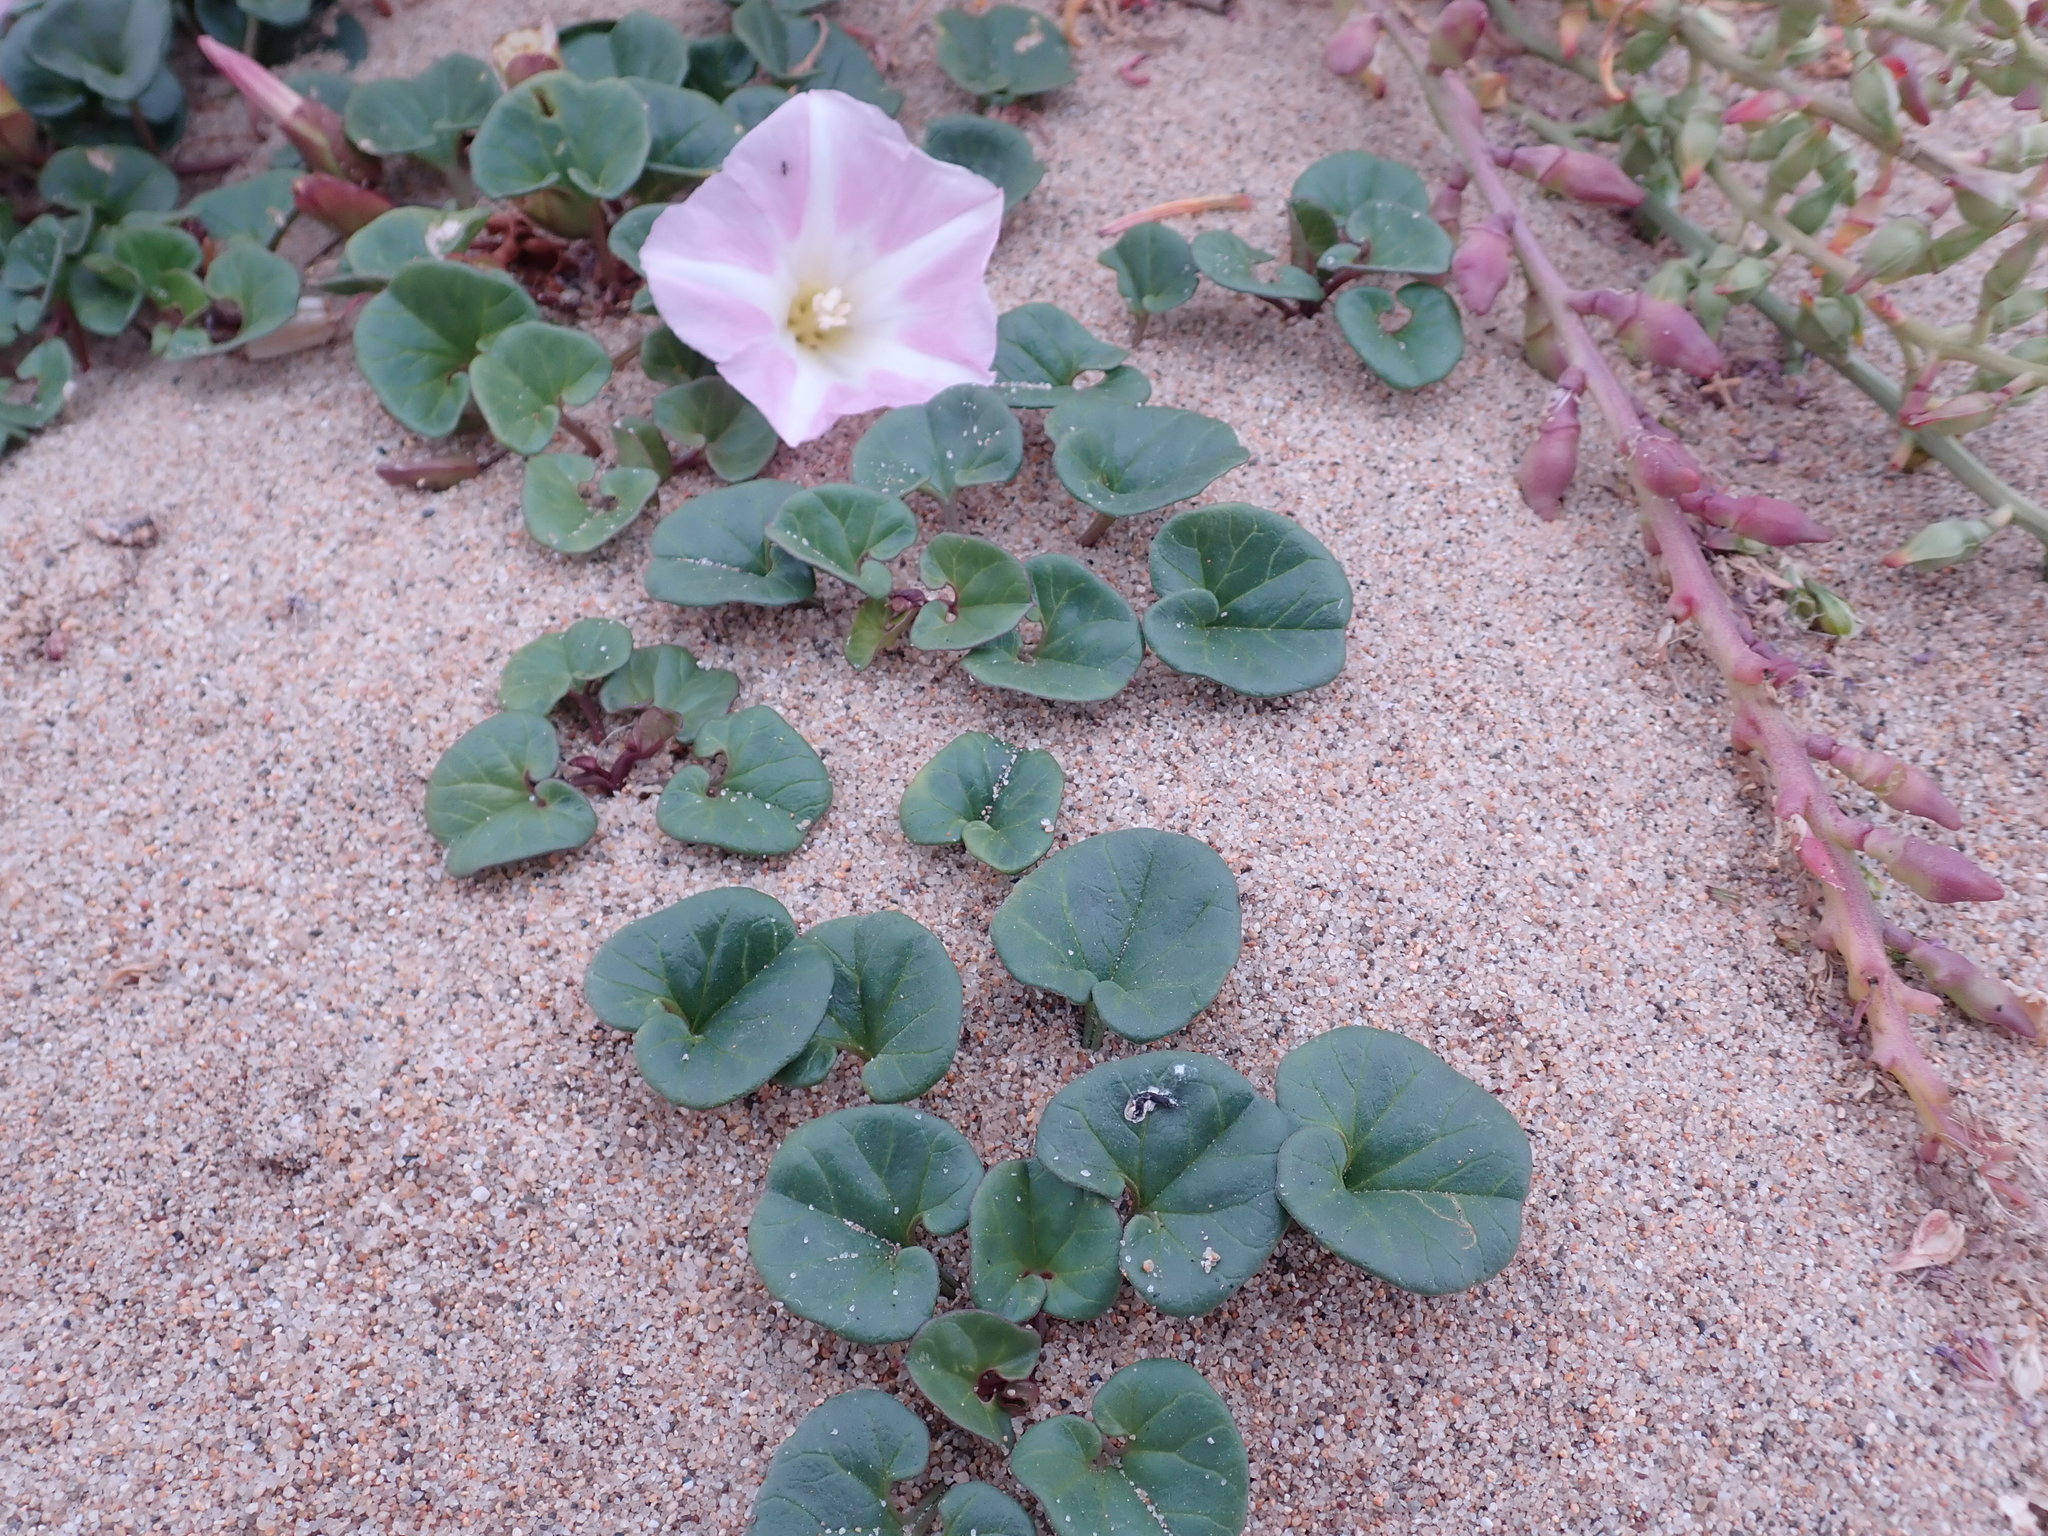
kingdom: Plantae
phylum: Tracheophyta
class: Magnoliopsida
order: Solanales
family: Convolvulaceae
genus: Calystegia
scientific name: Calystegia soldanella
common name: Sea bindweed
